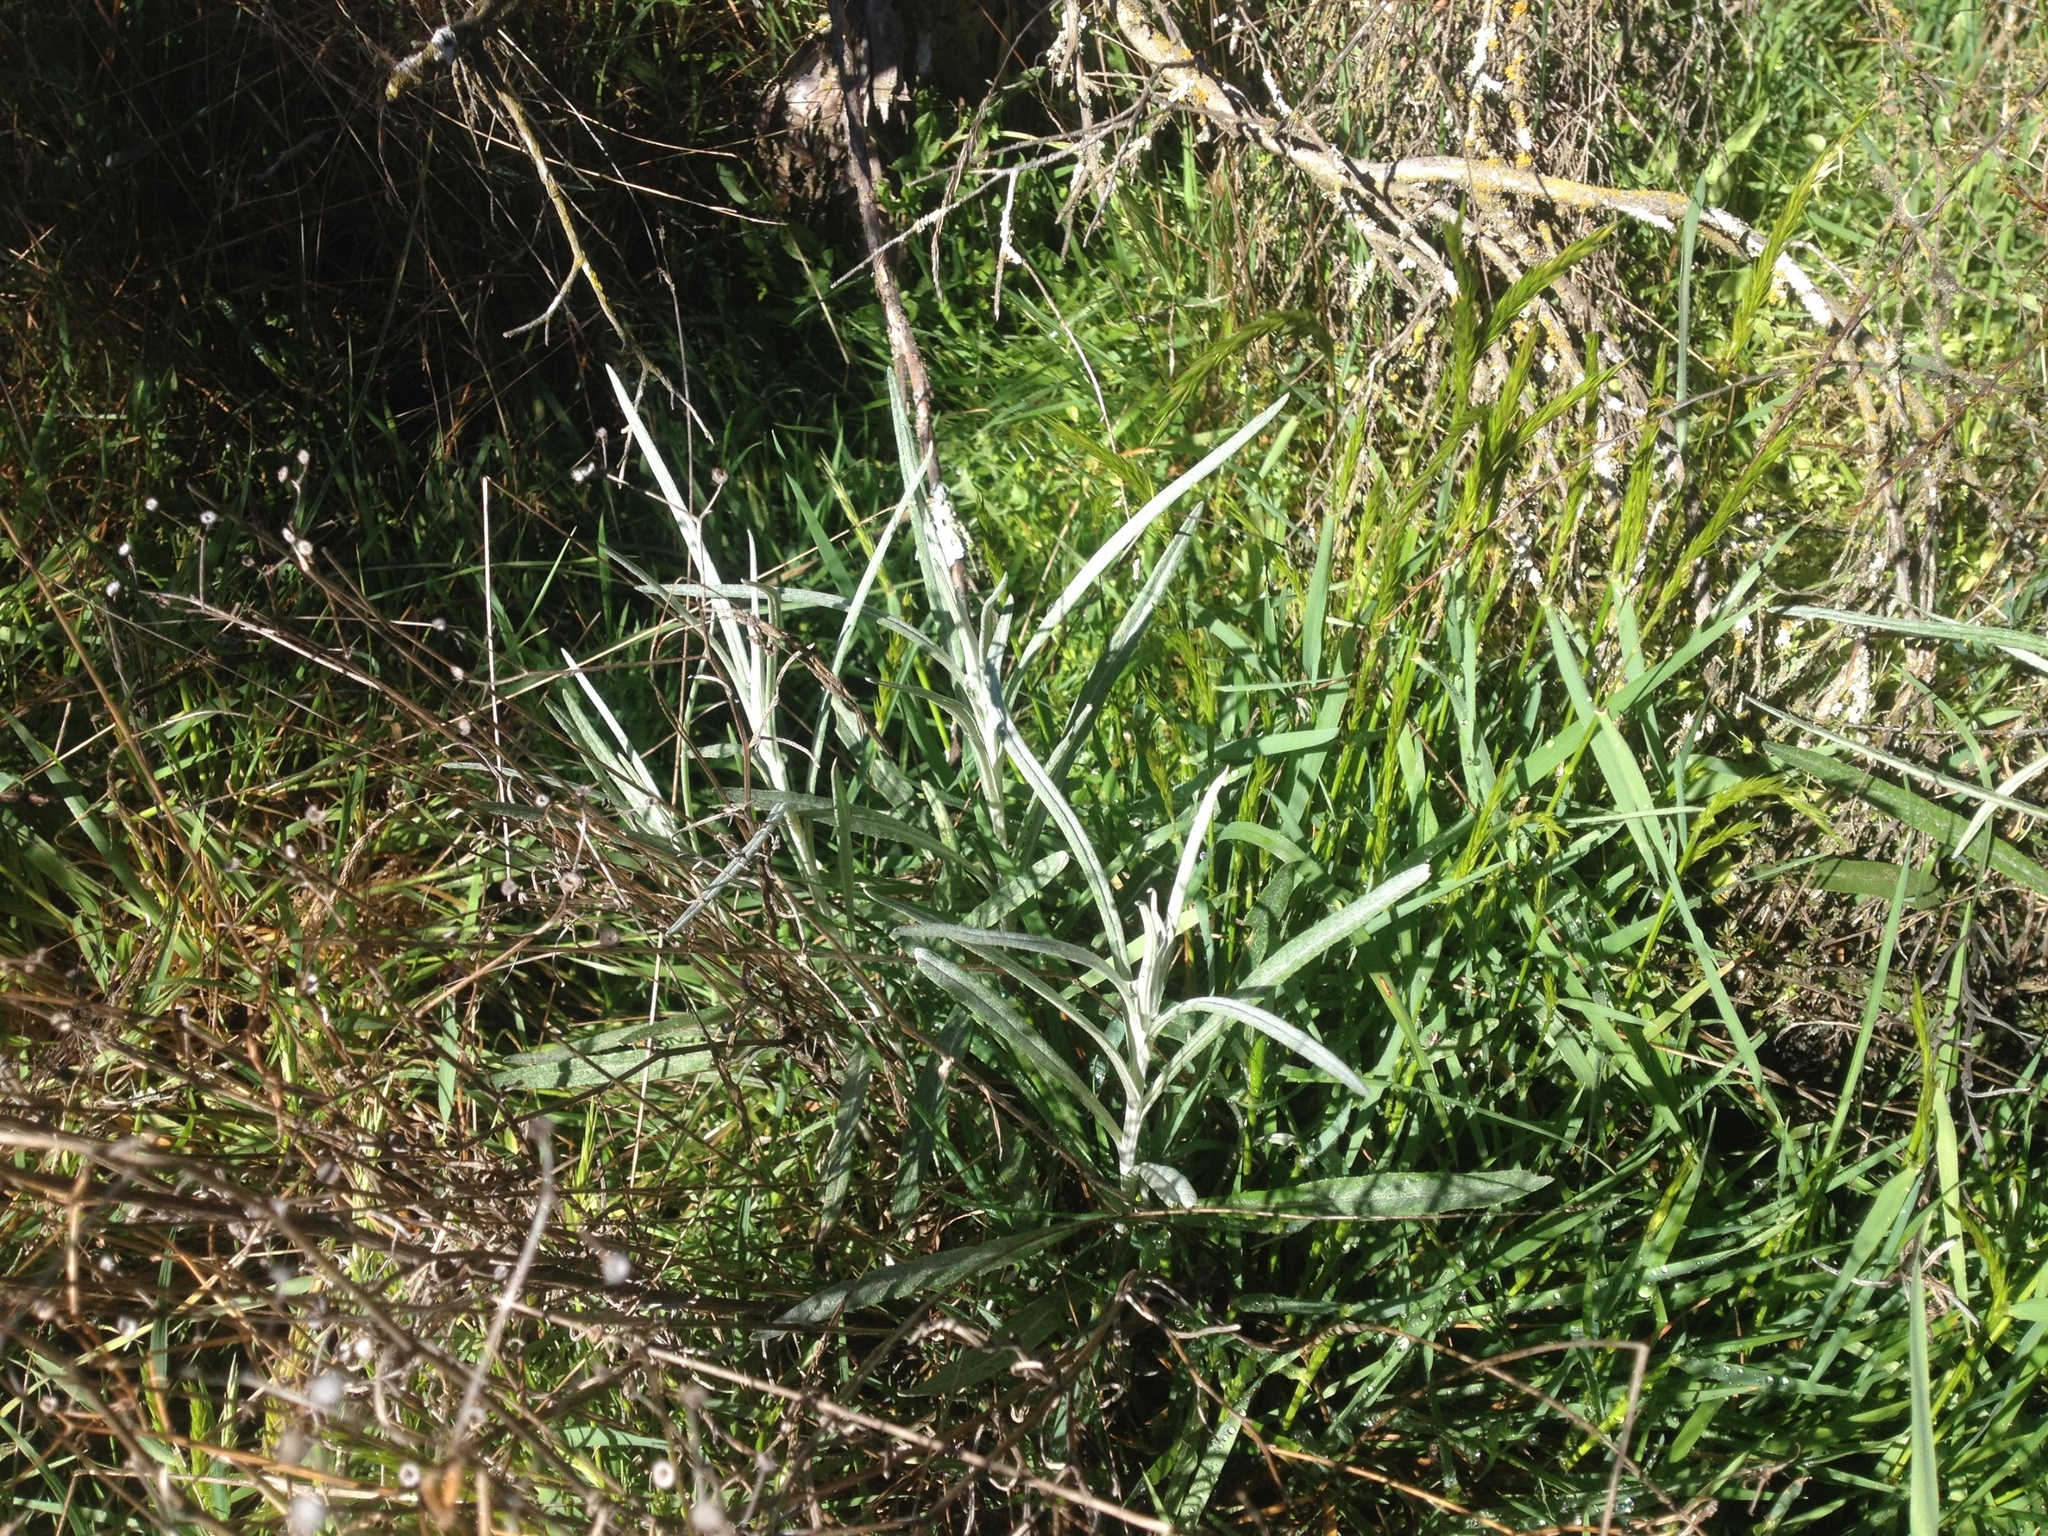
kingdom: Plantae
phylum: Tracheophyta
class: Magnoliopsida
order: Asterales
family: Asteraceae
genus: Senecio
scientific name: Senecio quadridentatus
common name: Cotton fireweed
